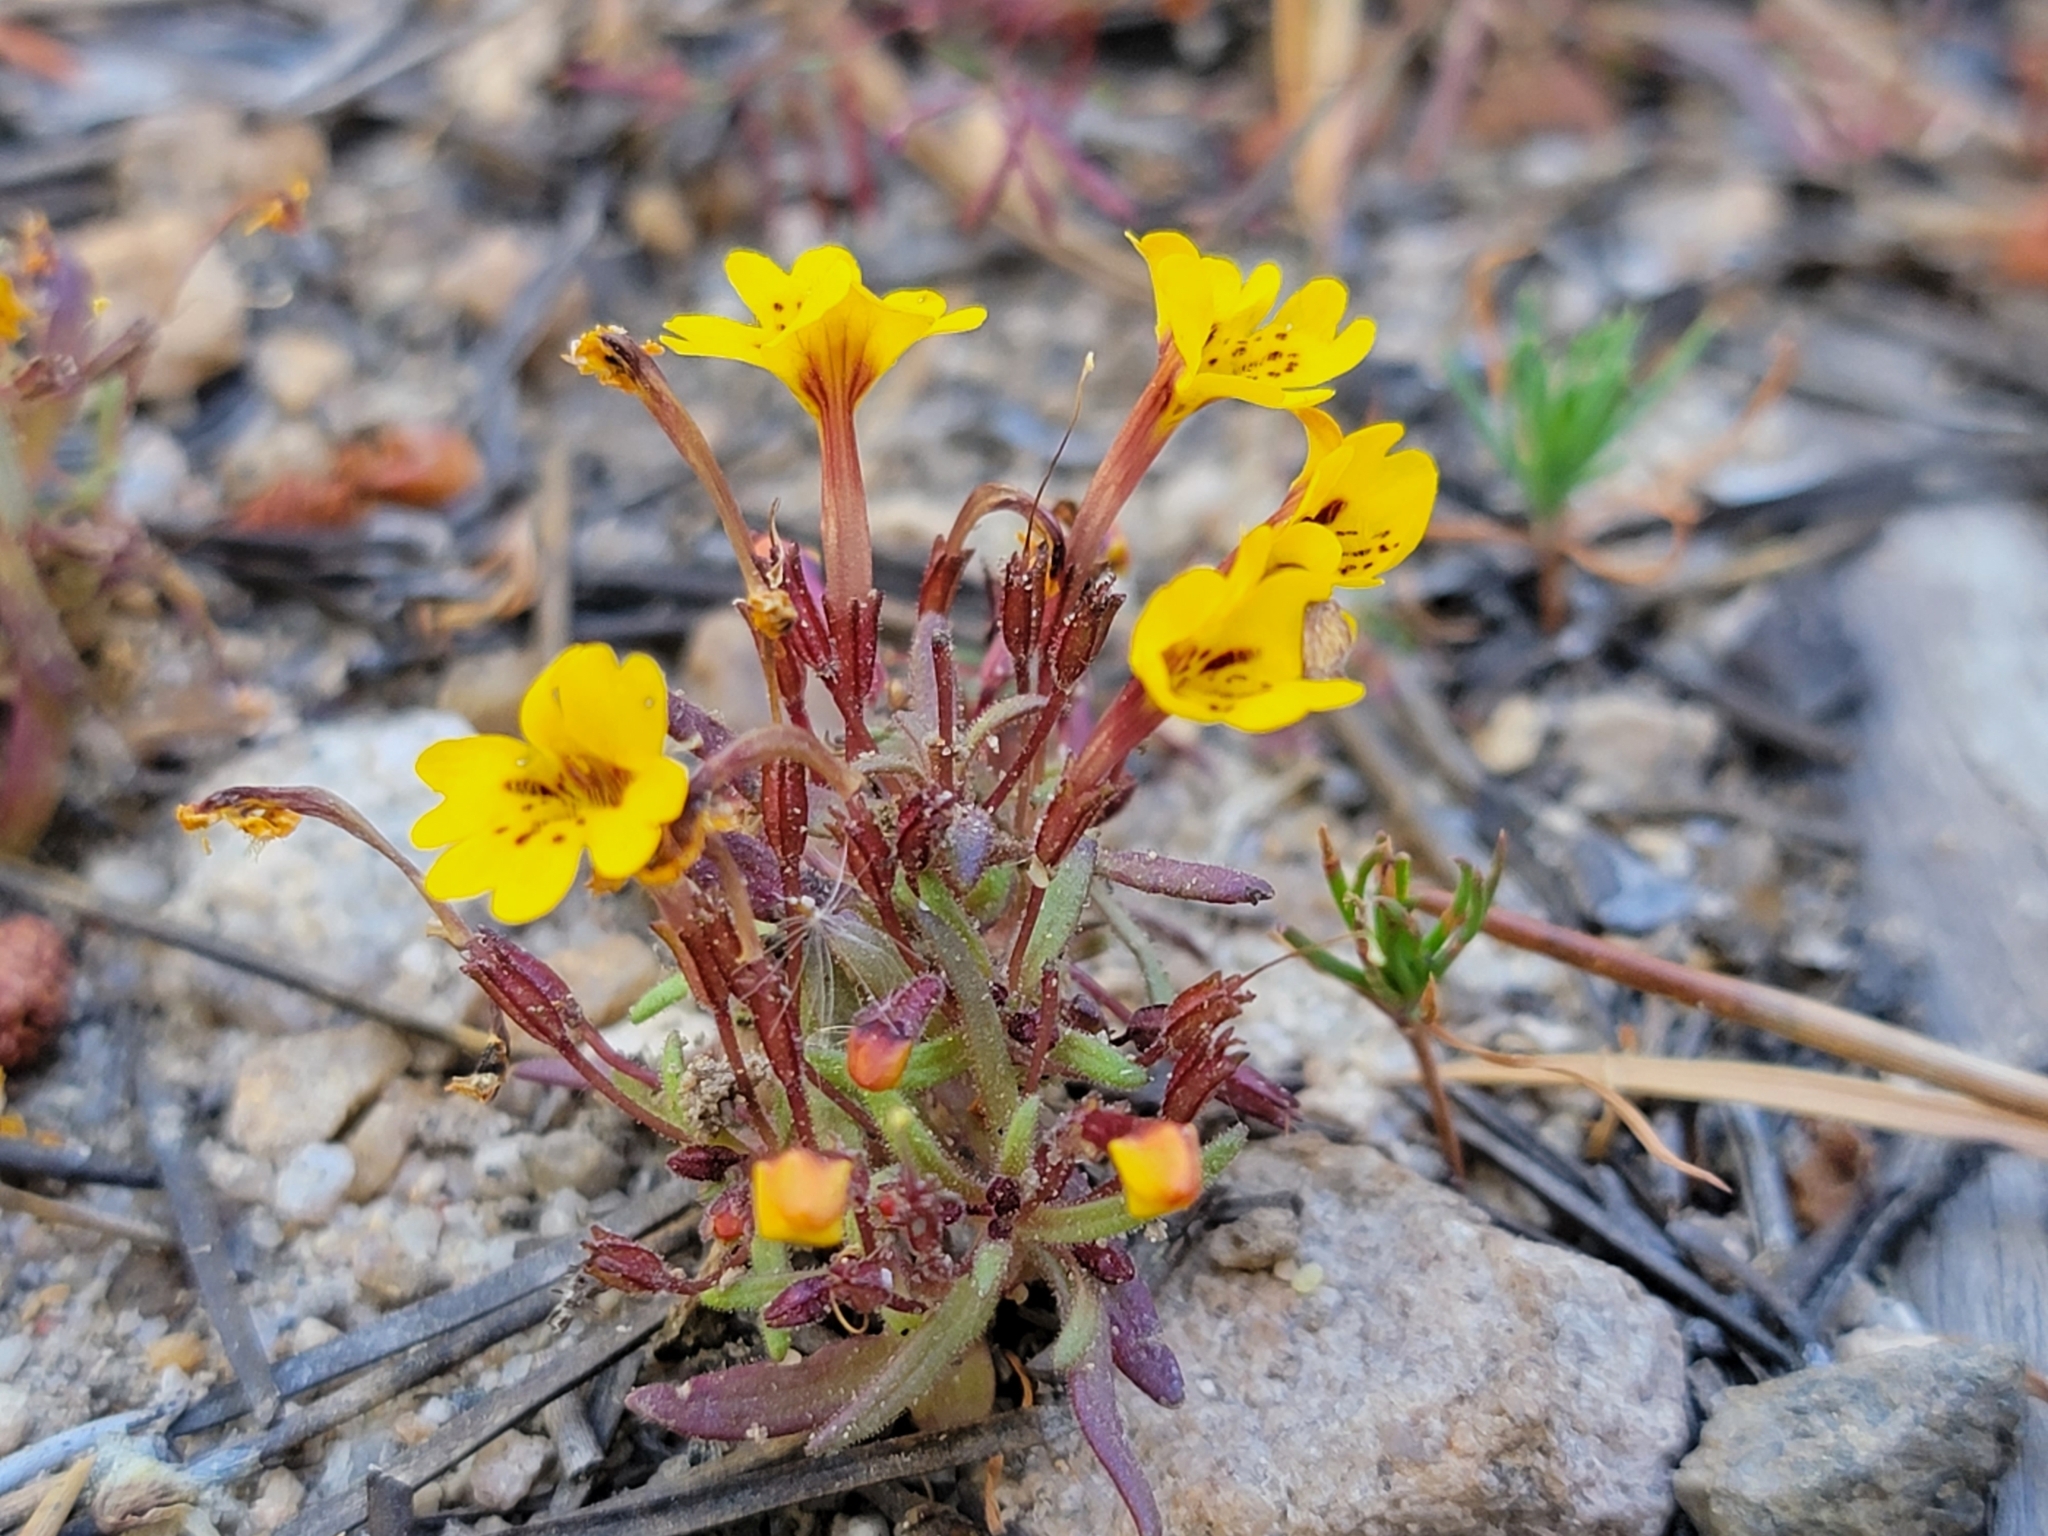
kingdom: Plantae
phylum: Tracheophyta
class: Magnoliopsida
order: Lamiales
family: Phrymaceae
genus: Erythranthe
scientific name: Erythranthe barbata
